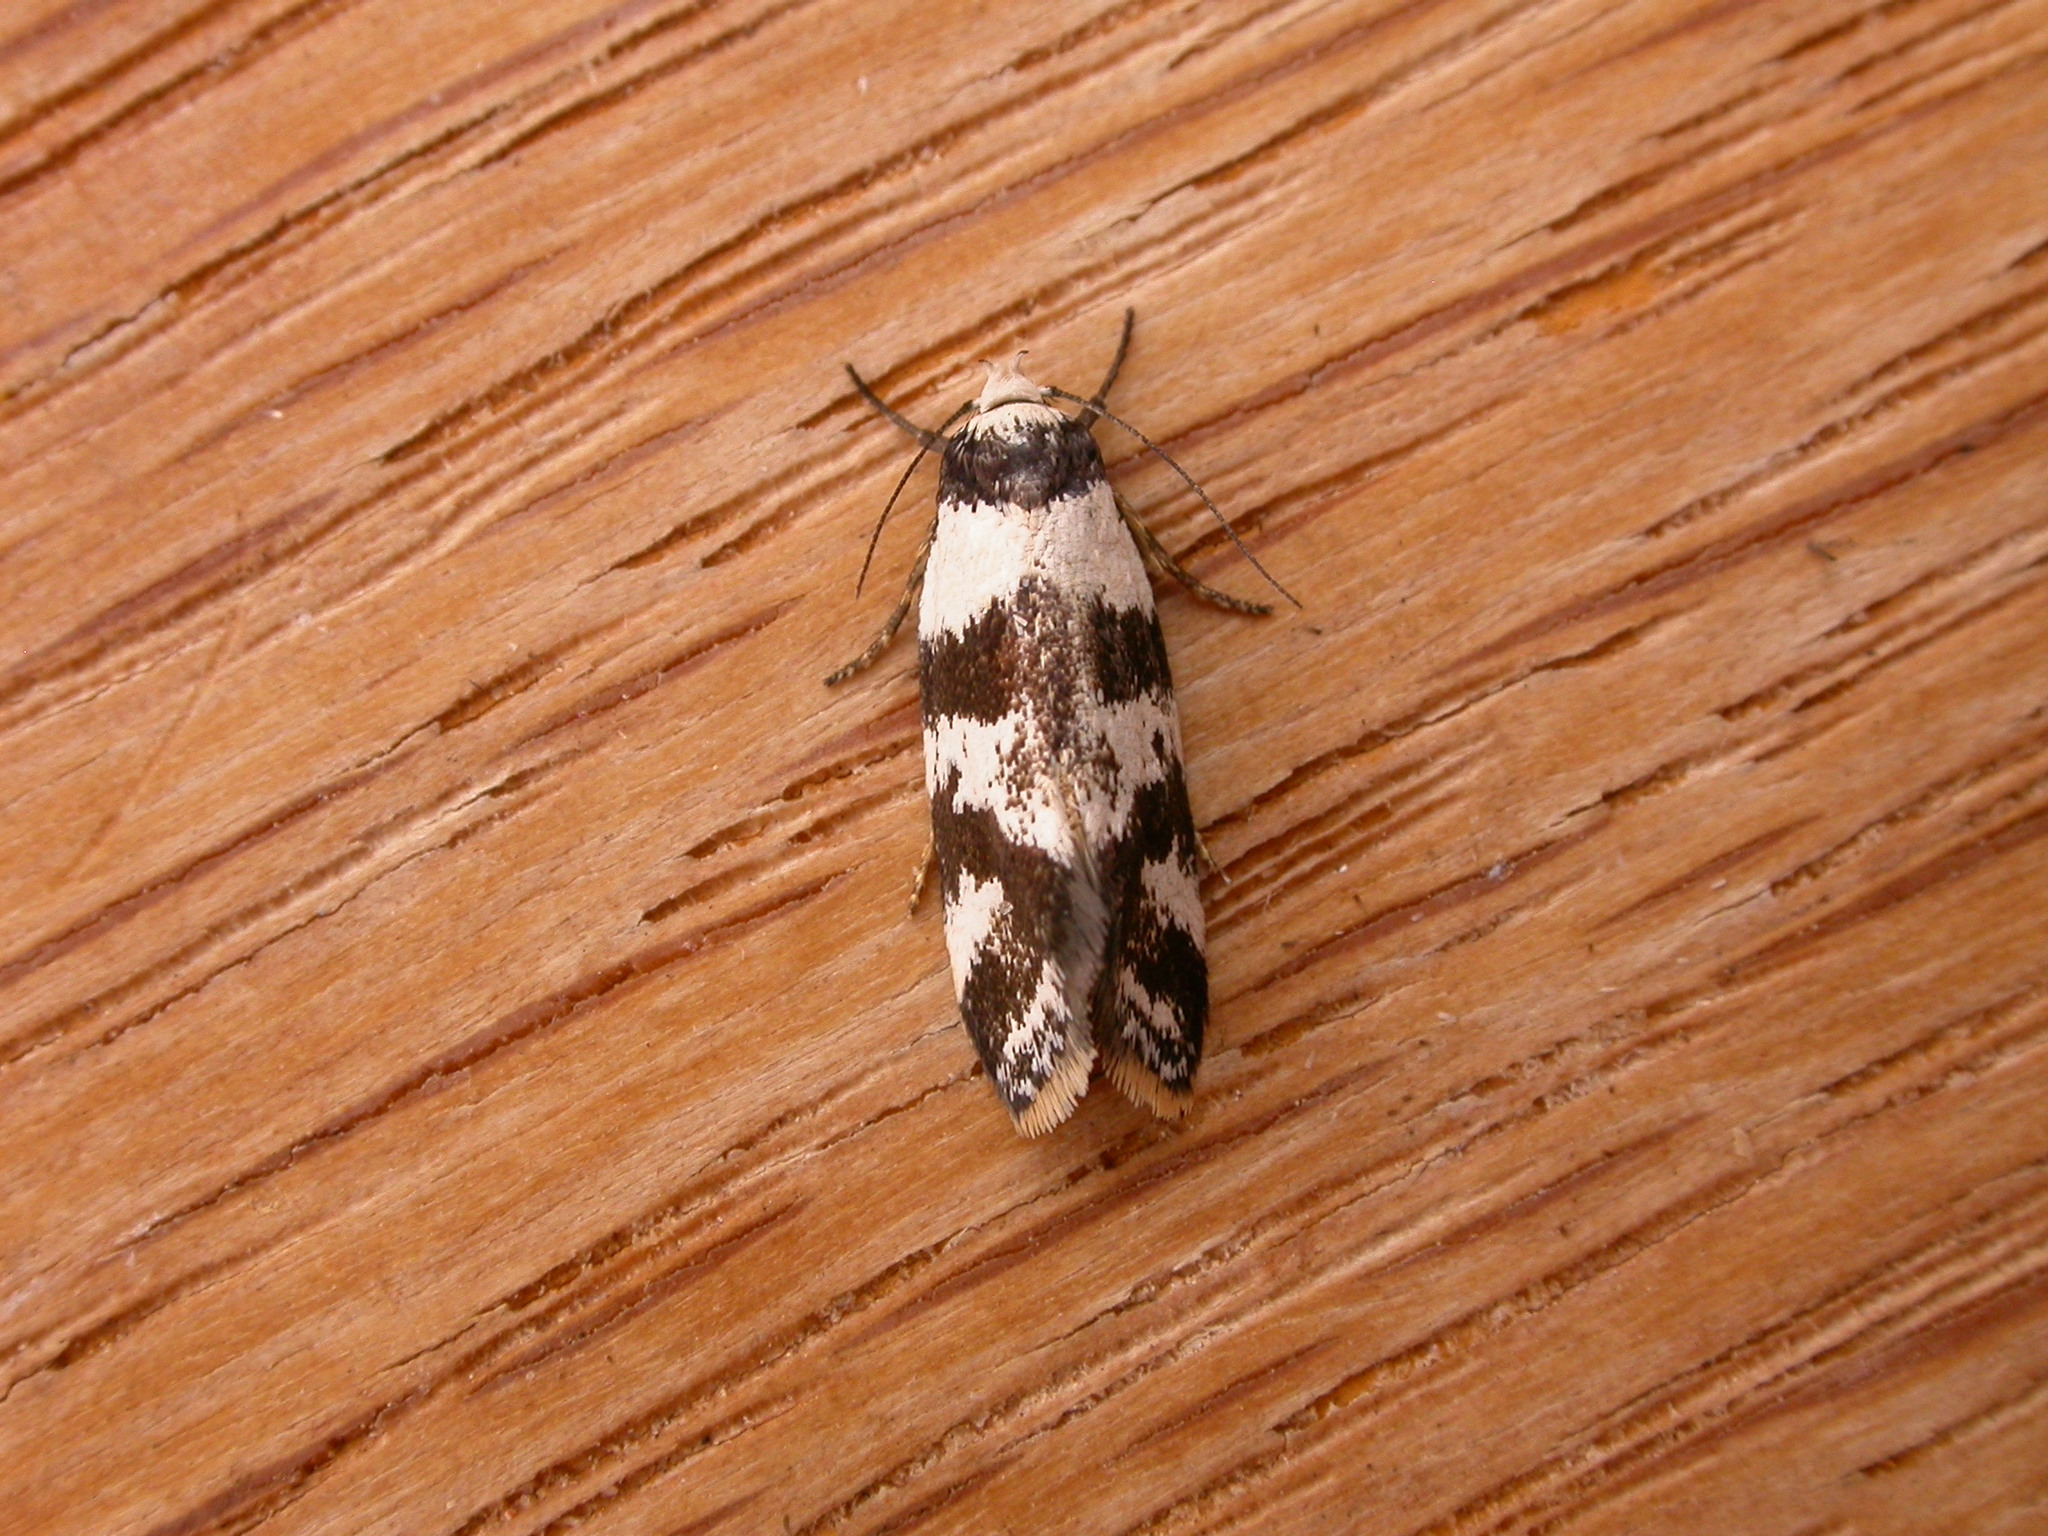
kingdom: Animalia
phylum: Arthropoda
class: Insecta
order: Lepidoptera
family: Oecophoridae
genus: Isomoralla
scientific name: Isomoralla eriscota
